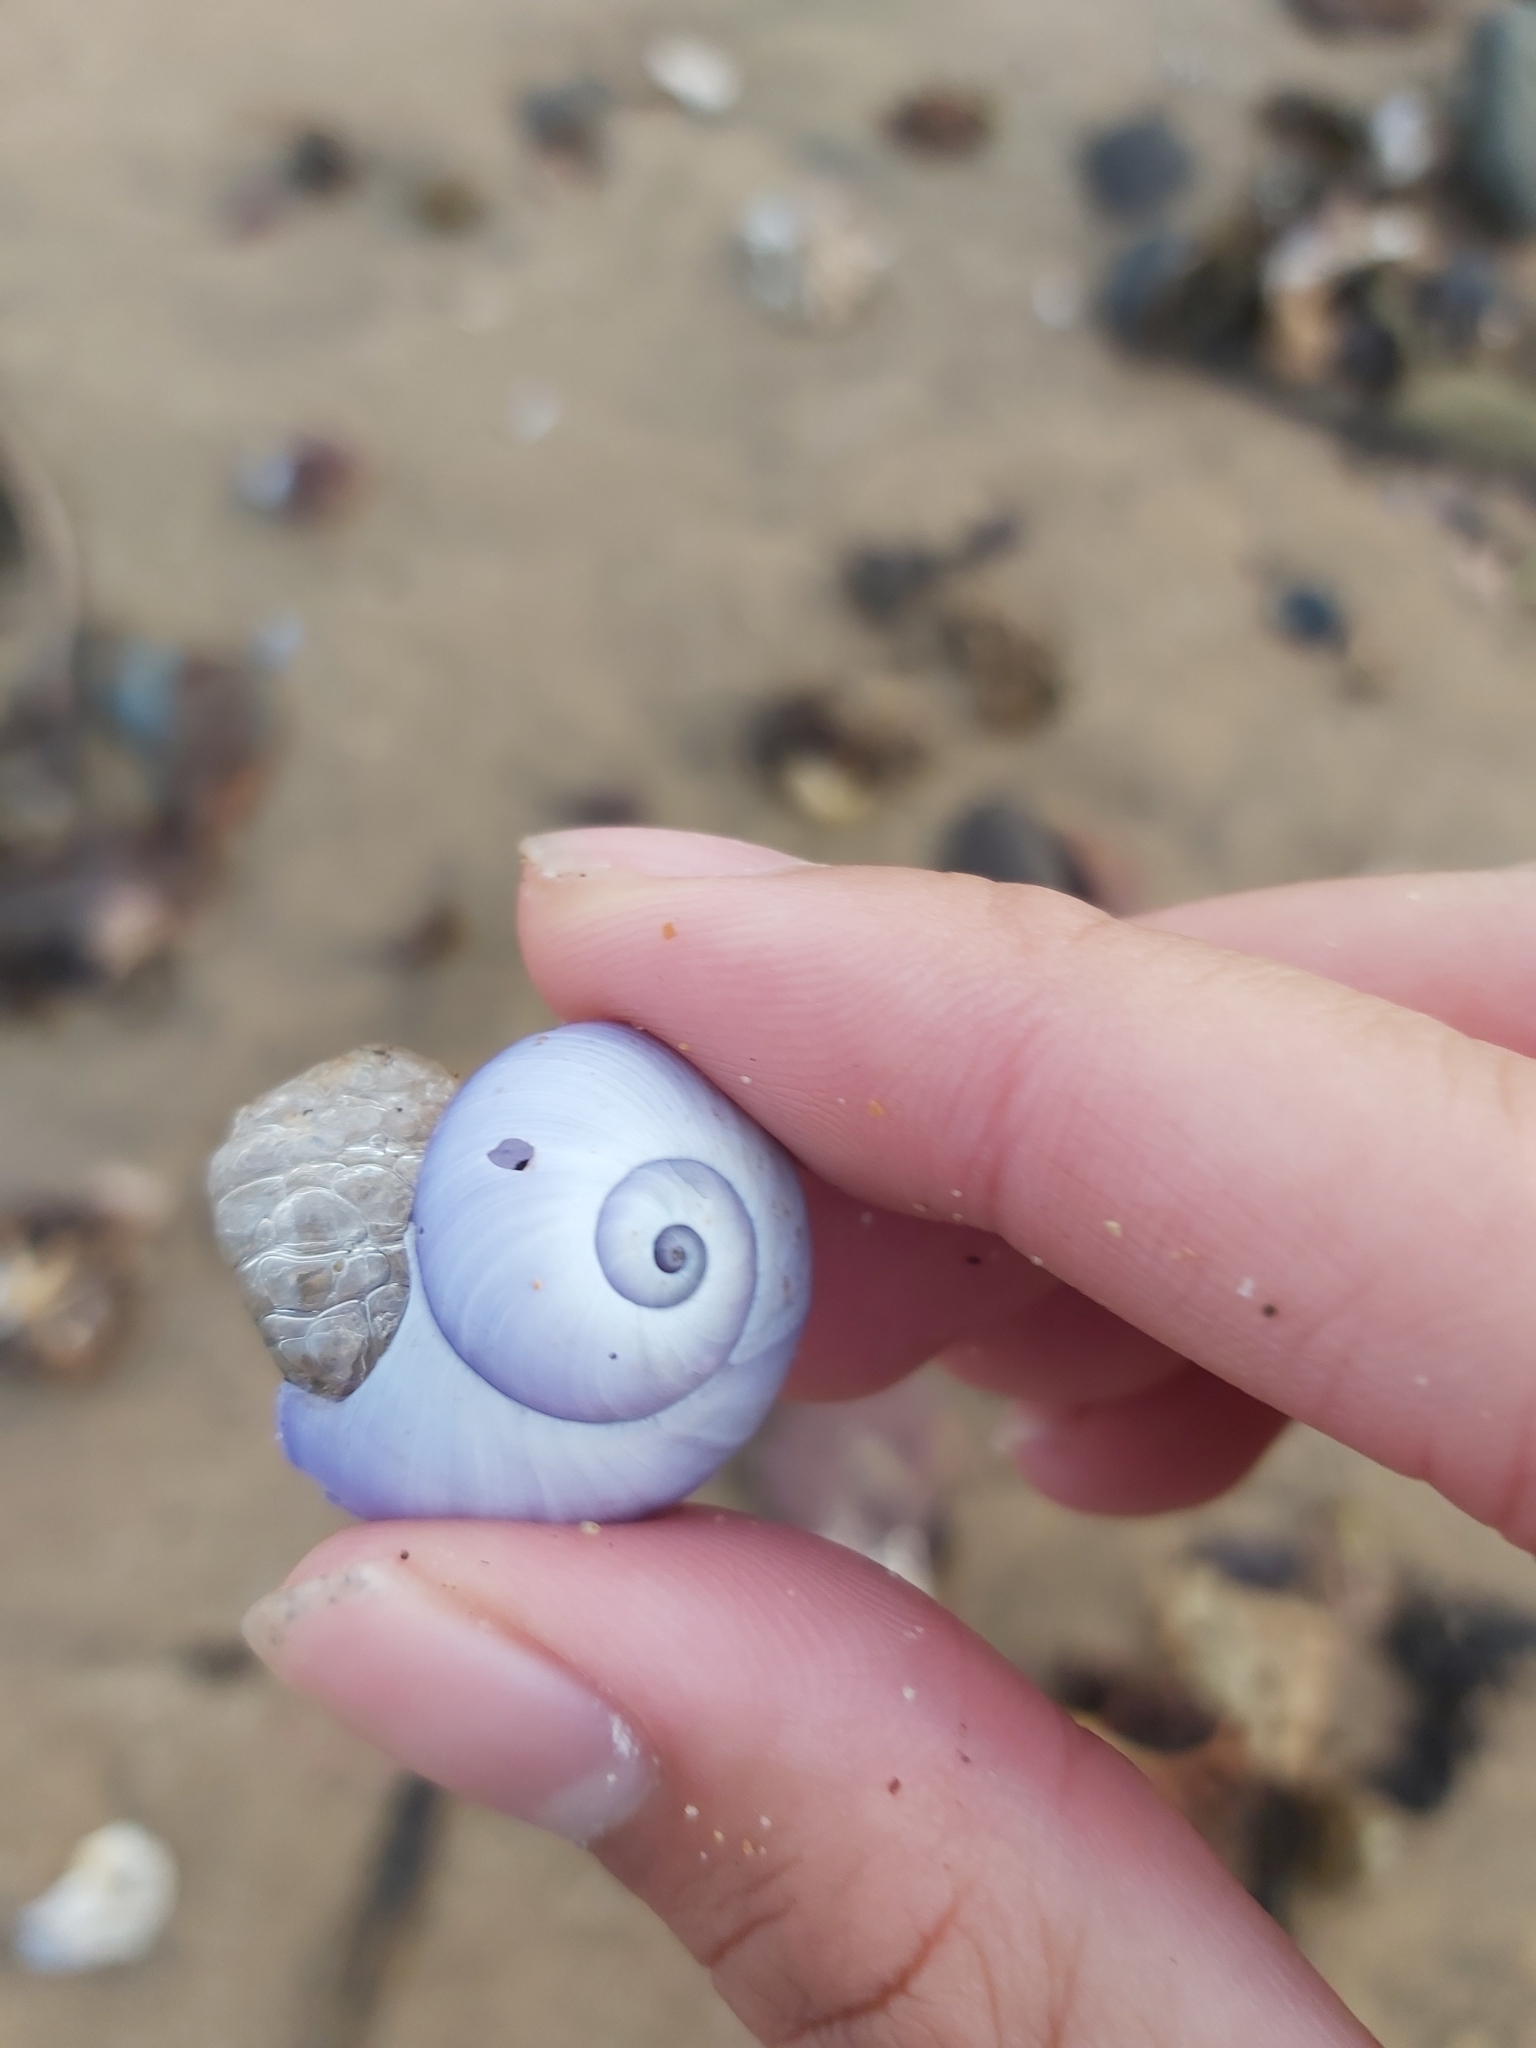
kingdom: Animalia
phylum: Mollusca
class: Gastropoda
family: Epitoniidae
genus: Janthina
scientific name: Janthina janthina
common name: Common janthina
